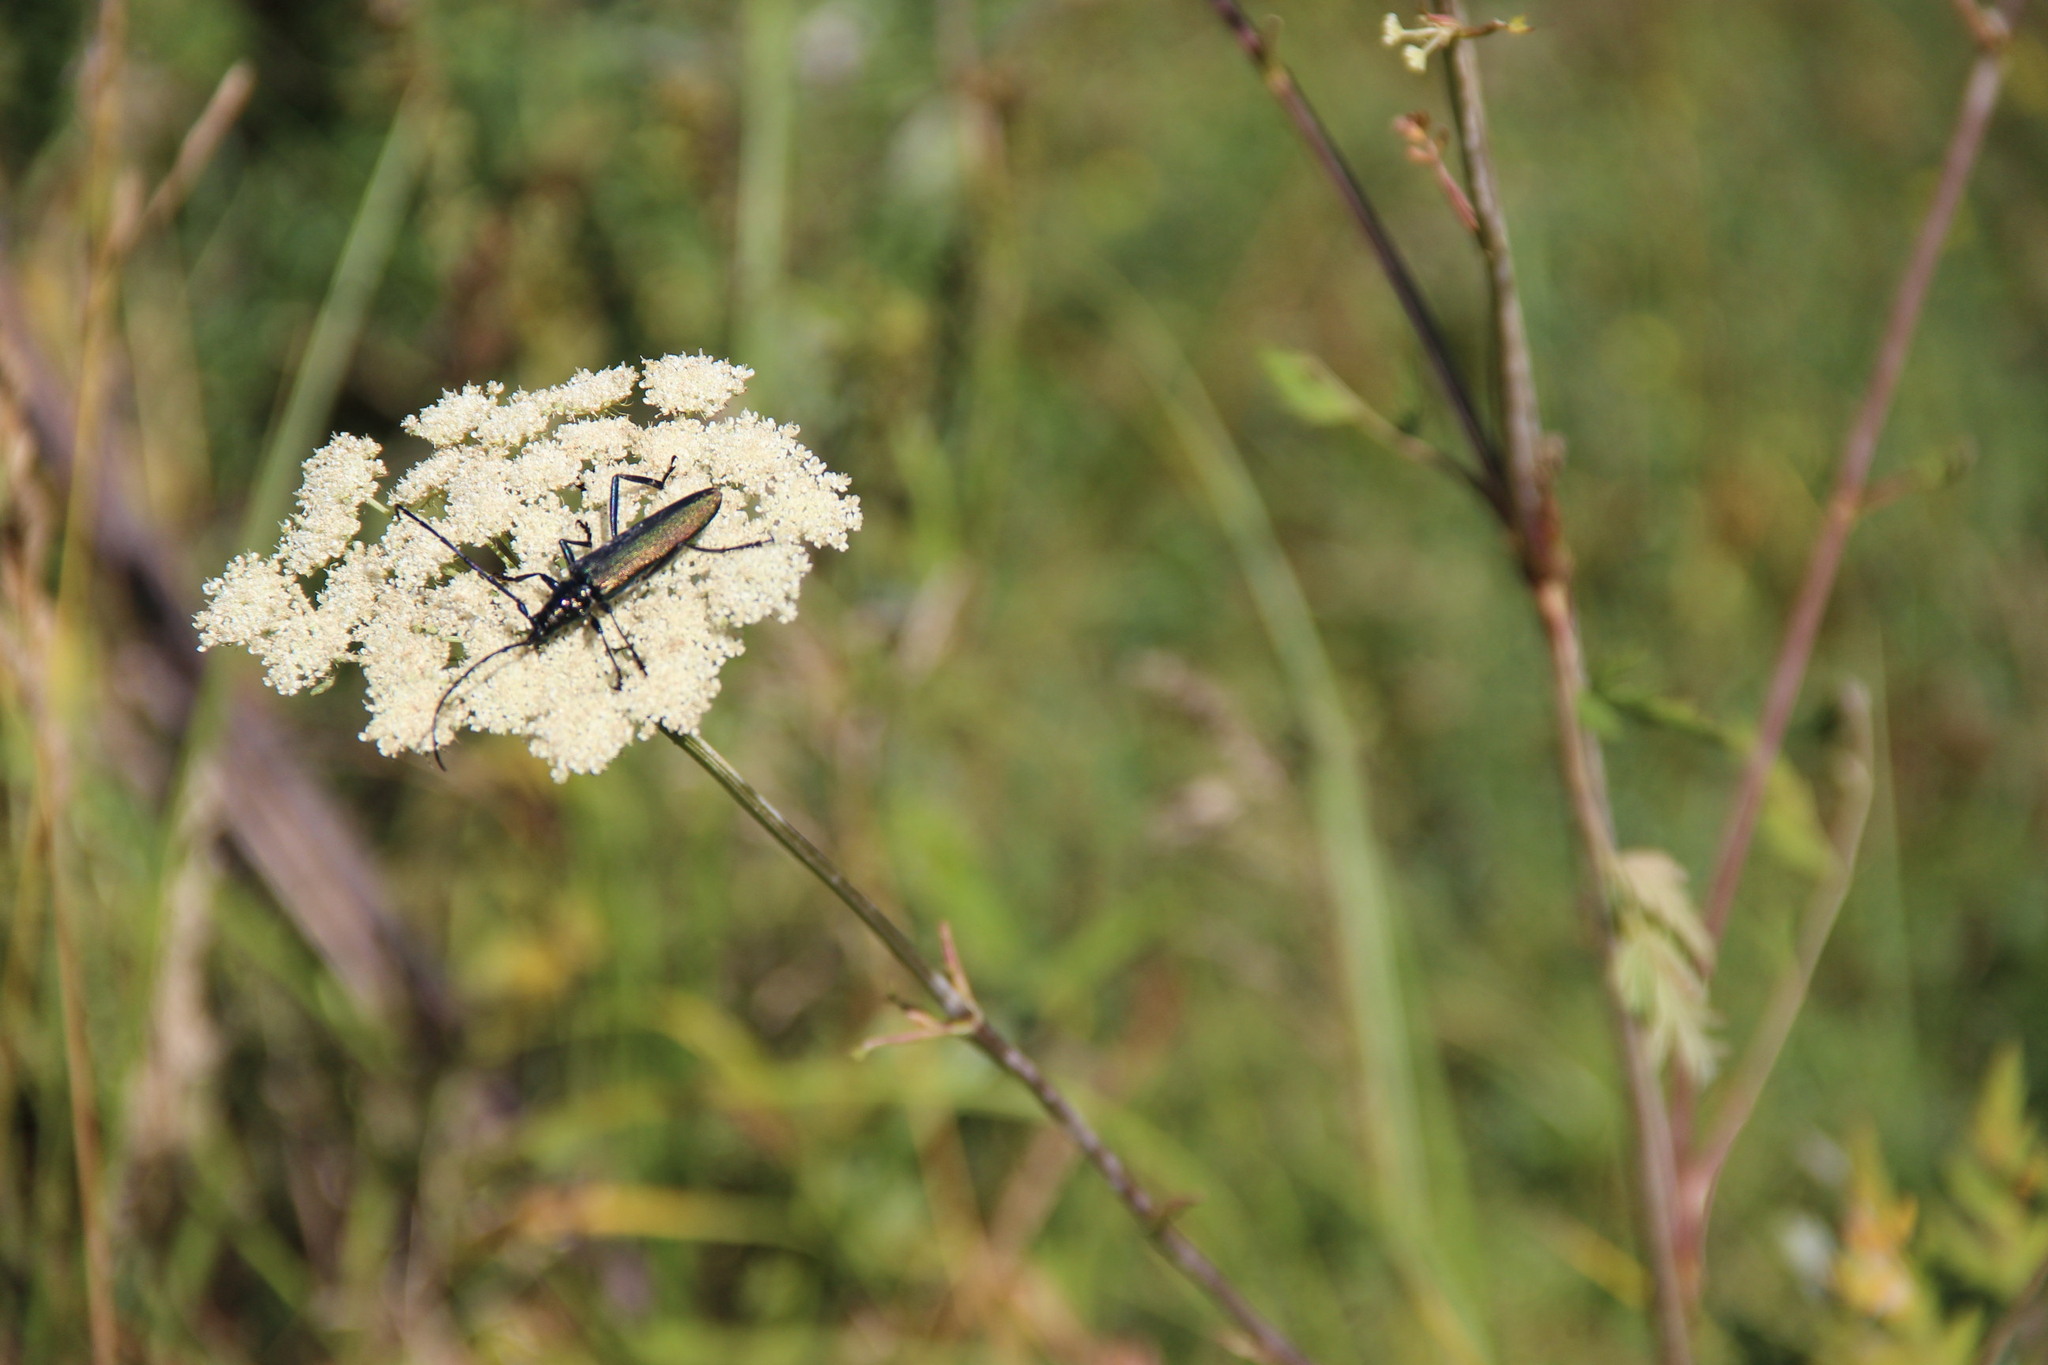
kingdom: Animalia
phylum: Arthropoda
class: Insecta
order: Coleoptera
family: Cerambycidae
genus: Aromia
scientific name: Aromia moschata
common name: Musk beetle
